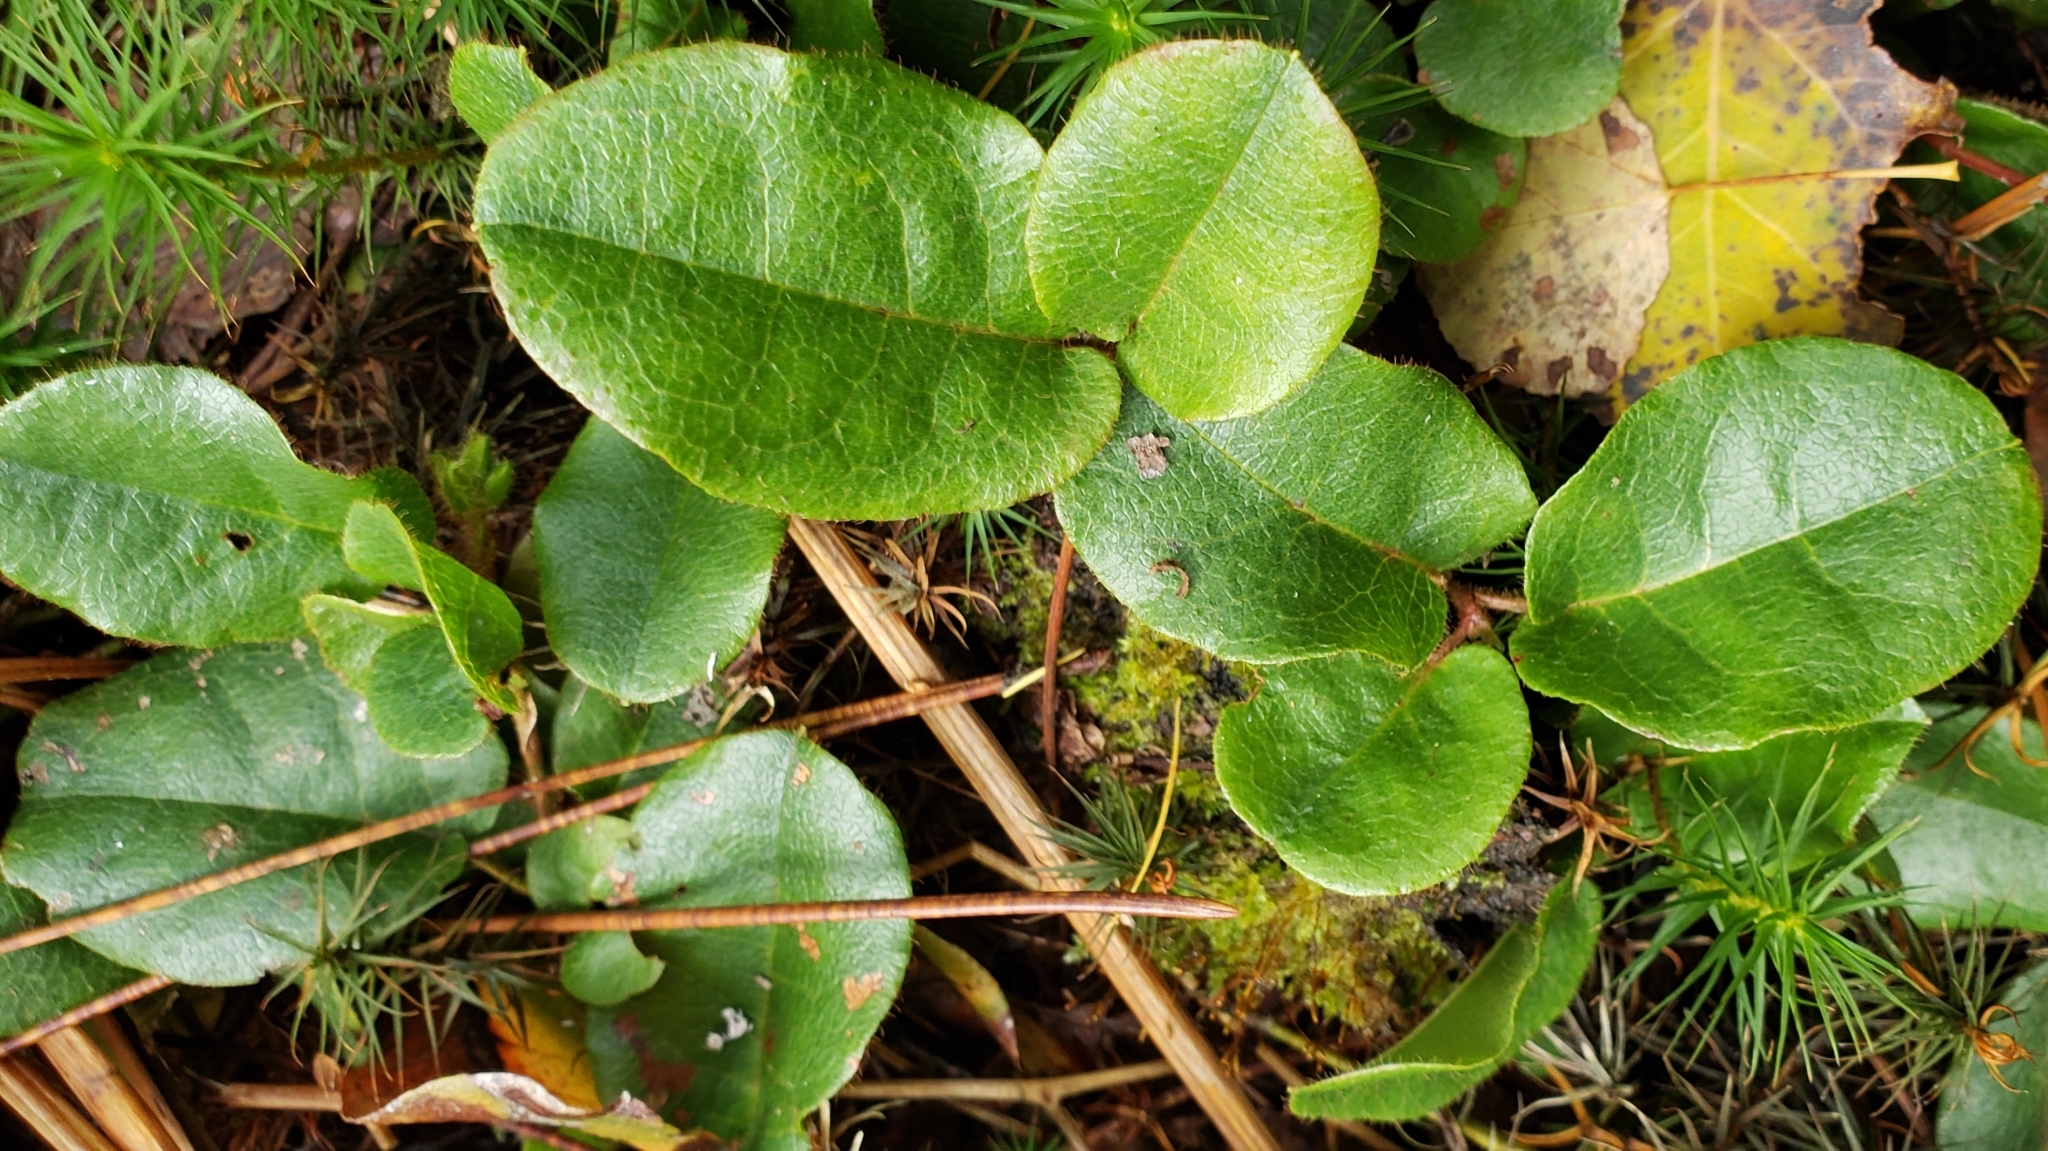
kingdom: Plantae
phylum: Tracheophyta
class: Magnoliopsida
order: Ericales
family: Ericaceae
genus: Epigaea
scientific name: Epigaea repens
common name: Gravelroot
